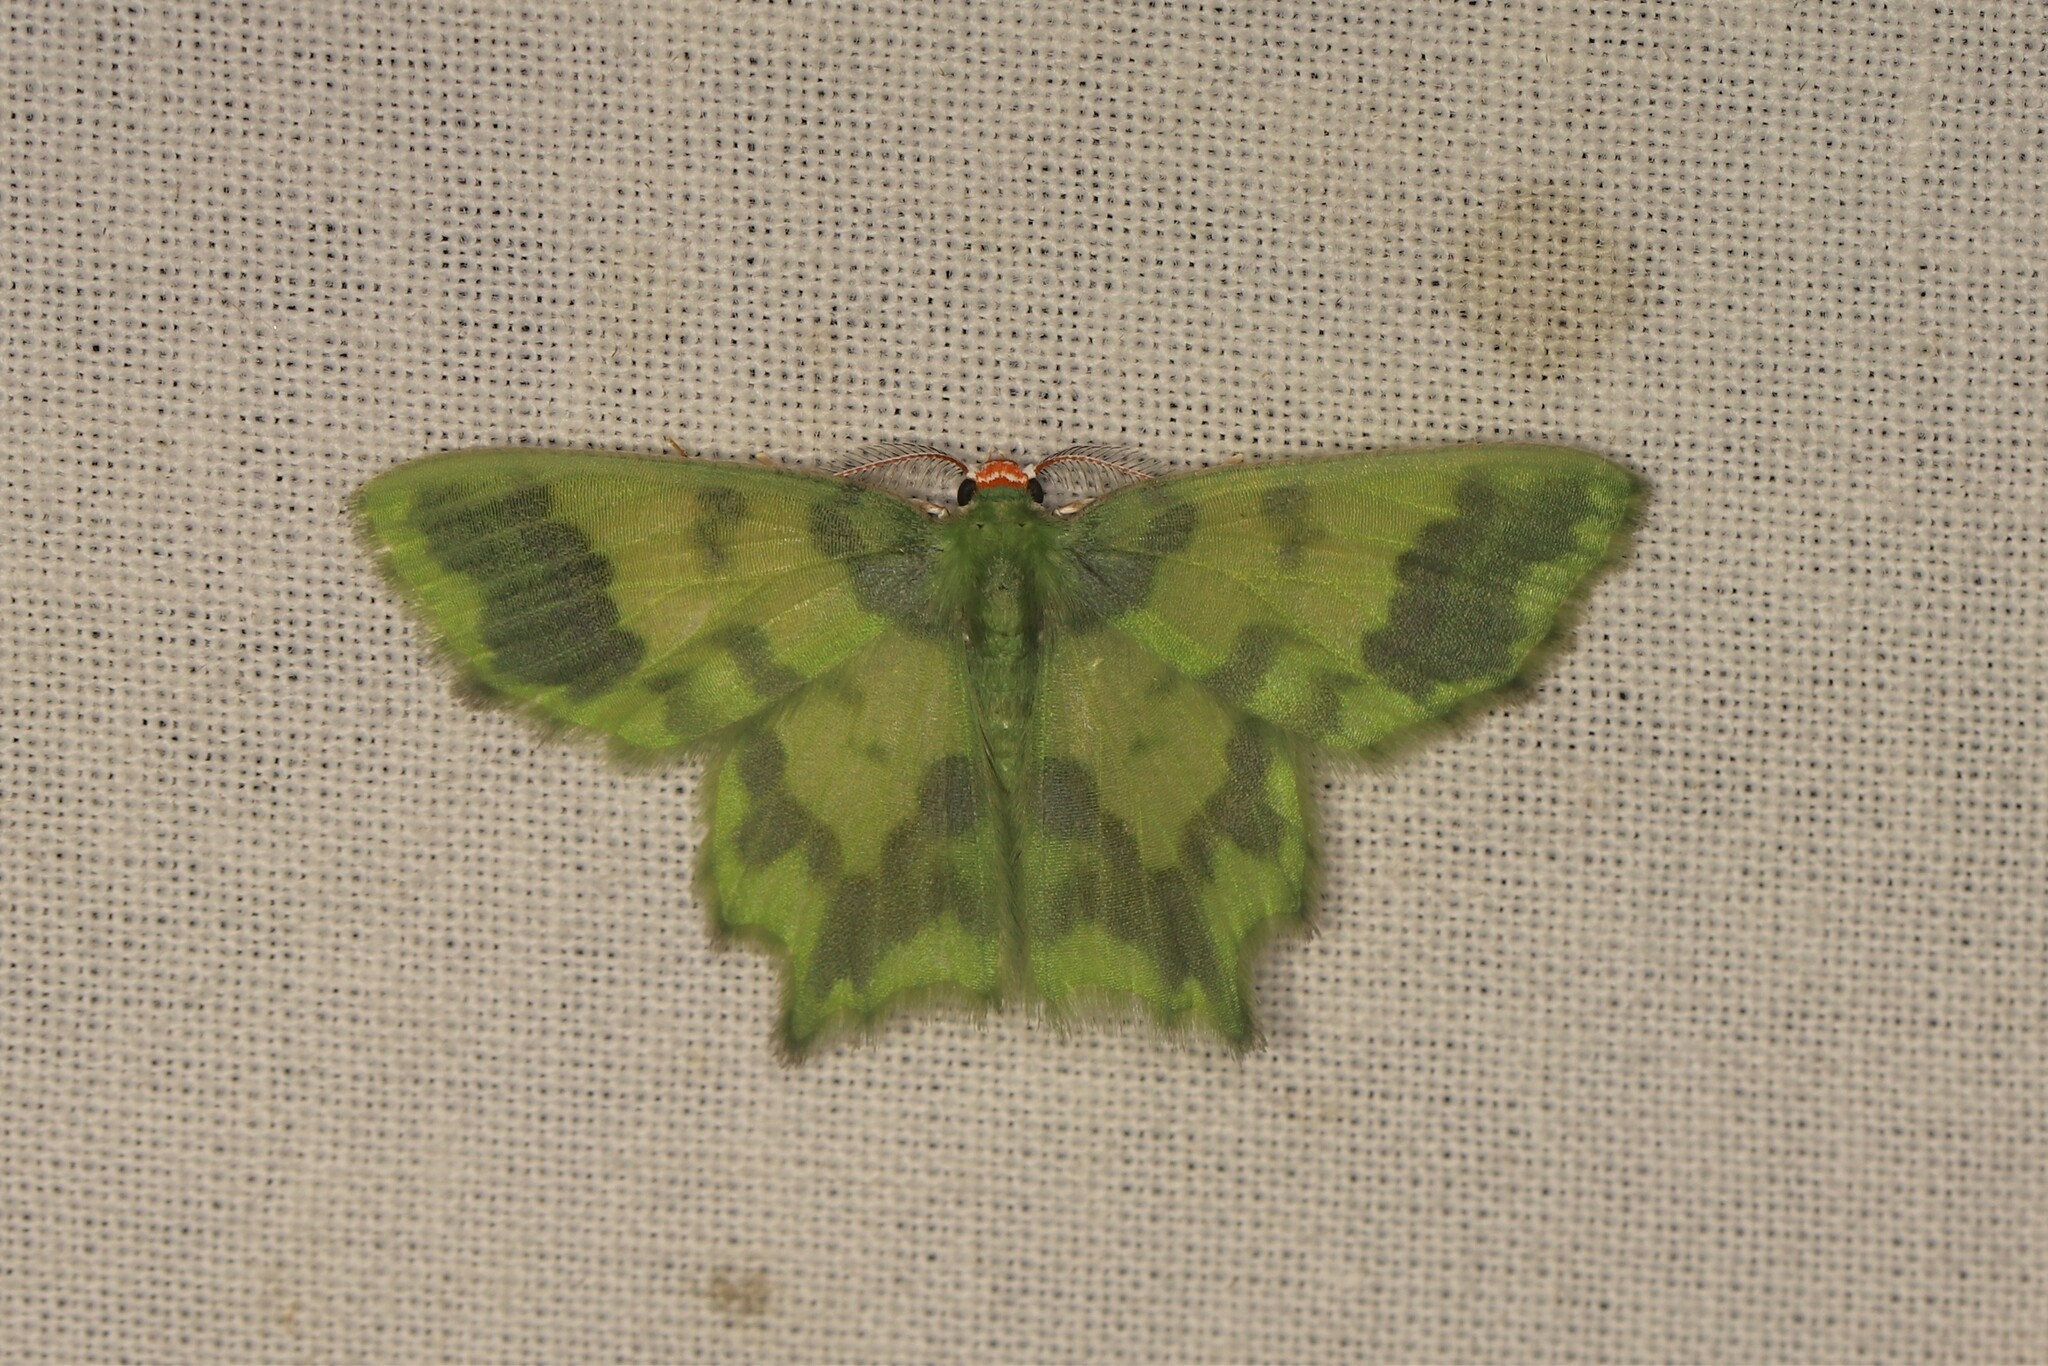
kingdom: Animalia
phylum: Arthropoda
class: Insecta
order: Lepidoptera
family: Geometridae
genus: Cathydata
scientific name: Cathydata batina
